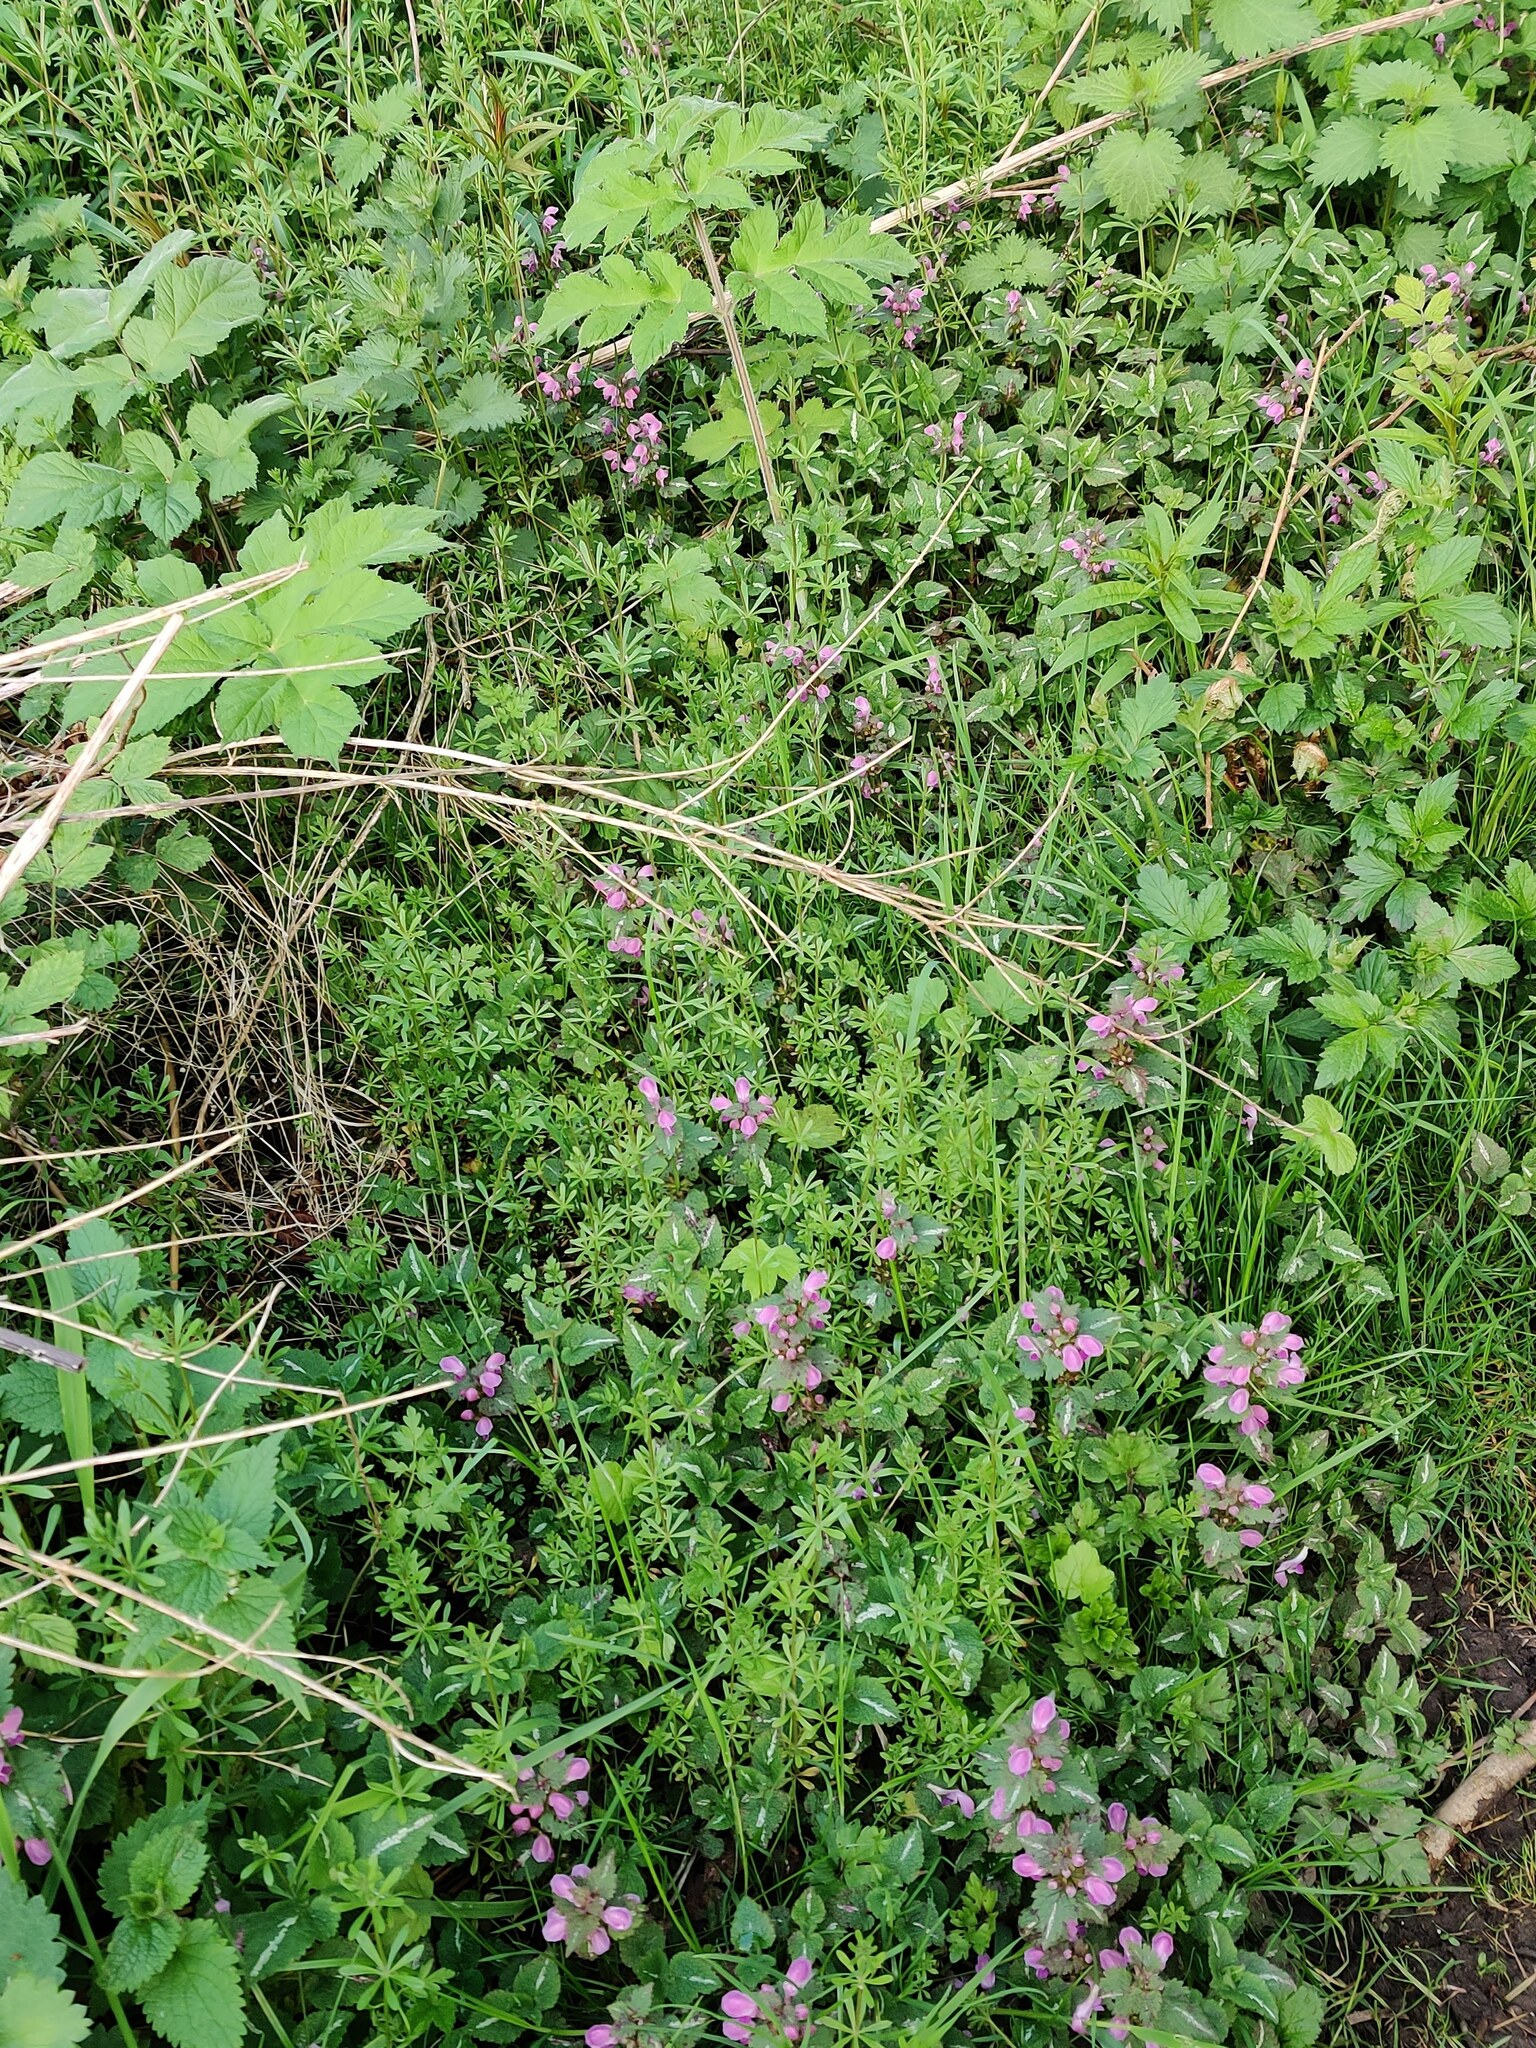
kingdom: Plantae
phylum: Tracheophyta
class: Magnoliopsida
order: Lamiales
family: Lamiaceae
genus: Lamium
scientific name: Lamium maculatum
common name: Spotted dead-nettle
